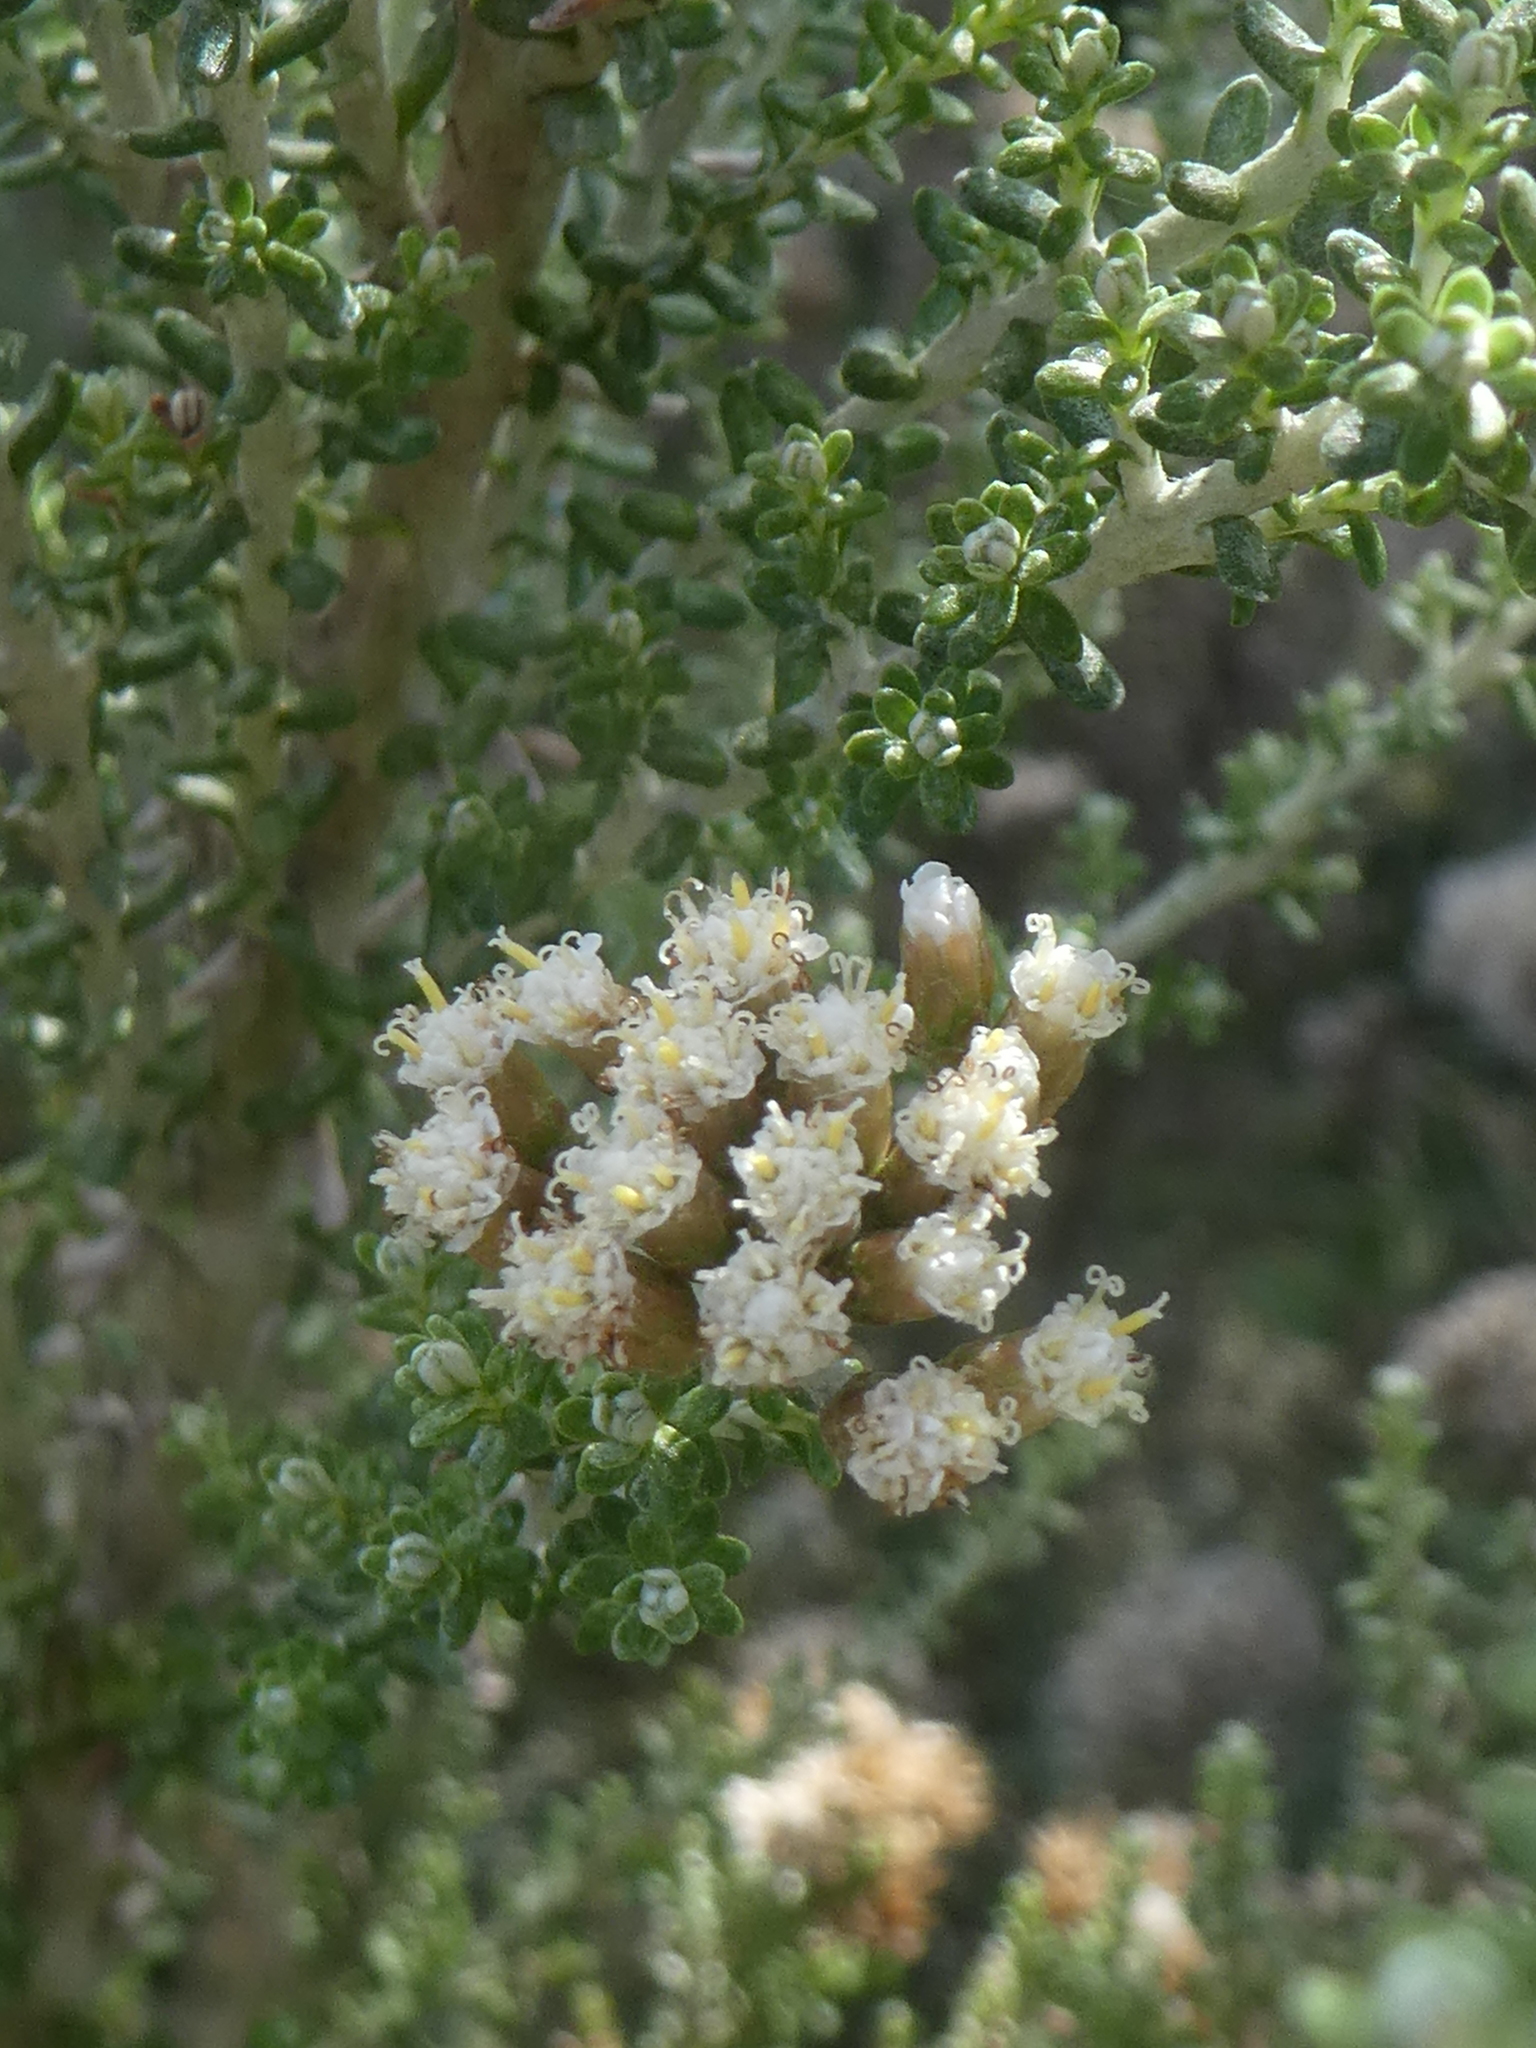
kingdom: Plantae
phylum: Tracheophyta
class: Magnoliopsida
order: Asterales
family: Asteraceae
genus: Ozothamnus
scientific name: Ozothamnus leptophyllus
